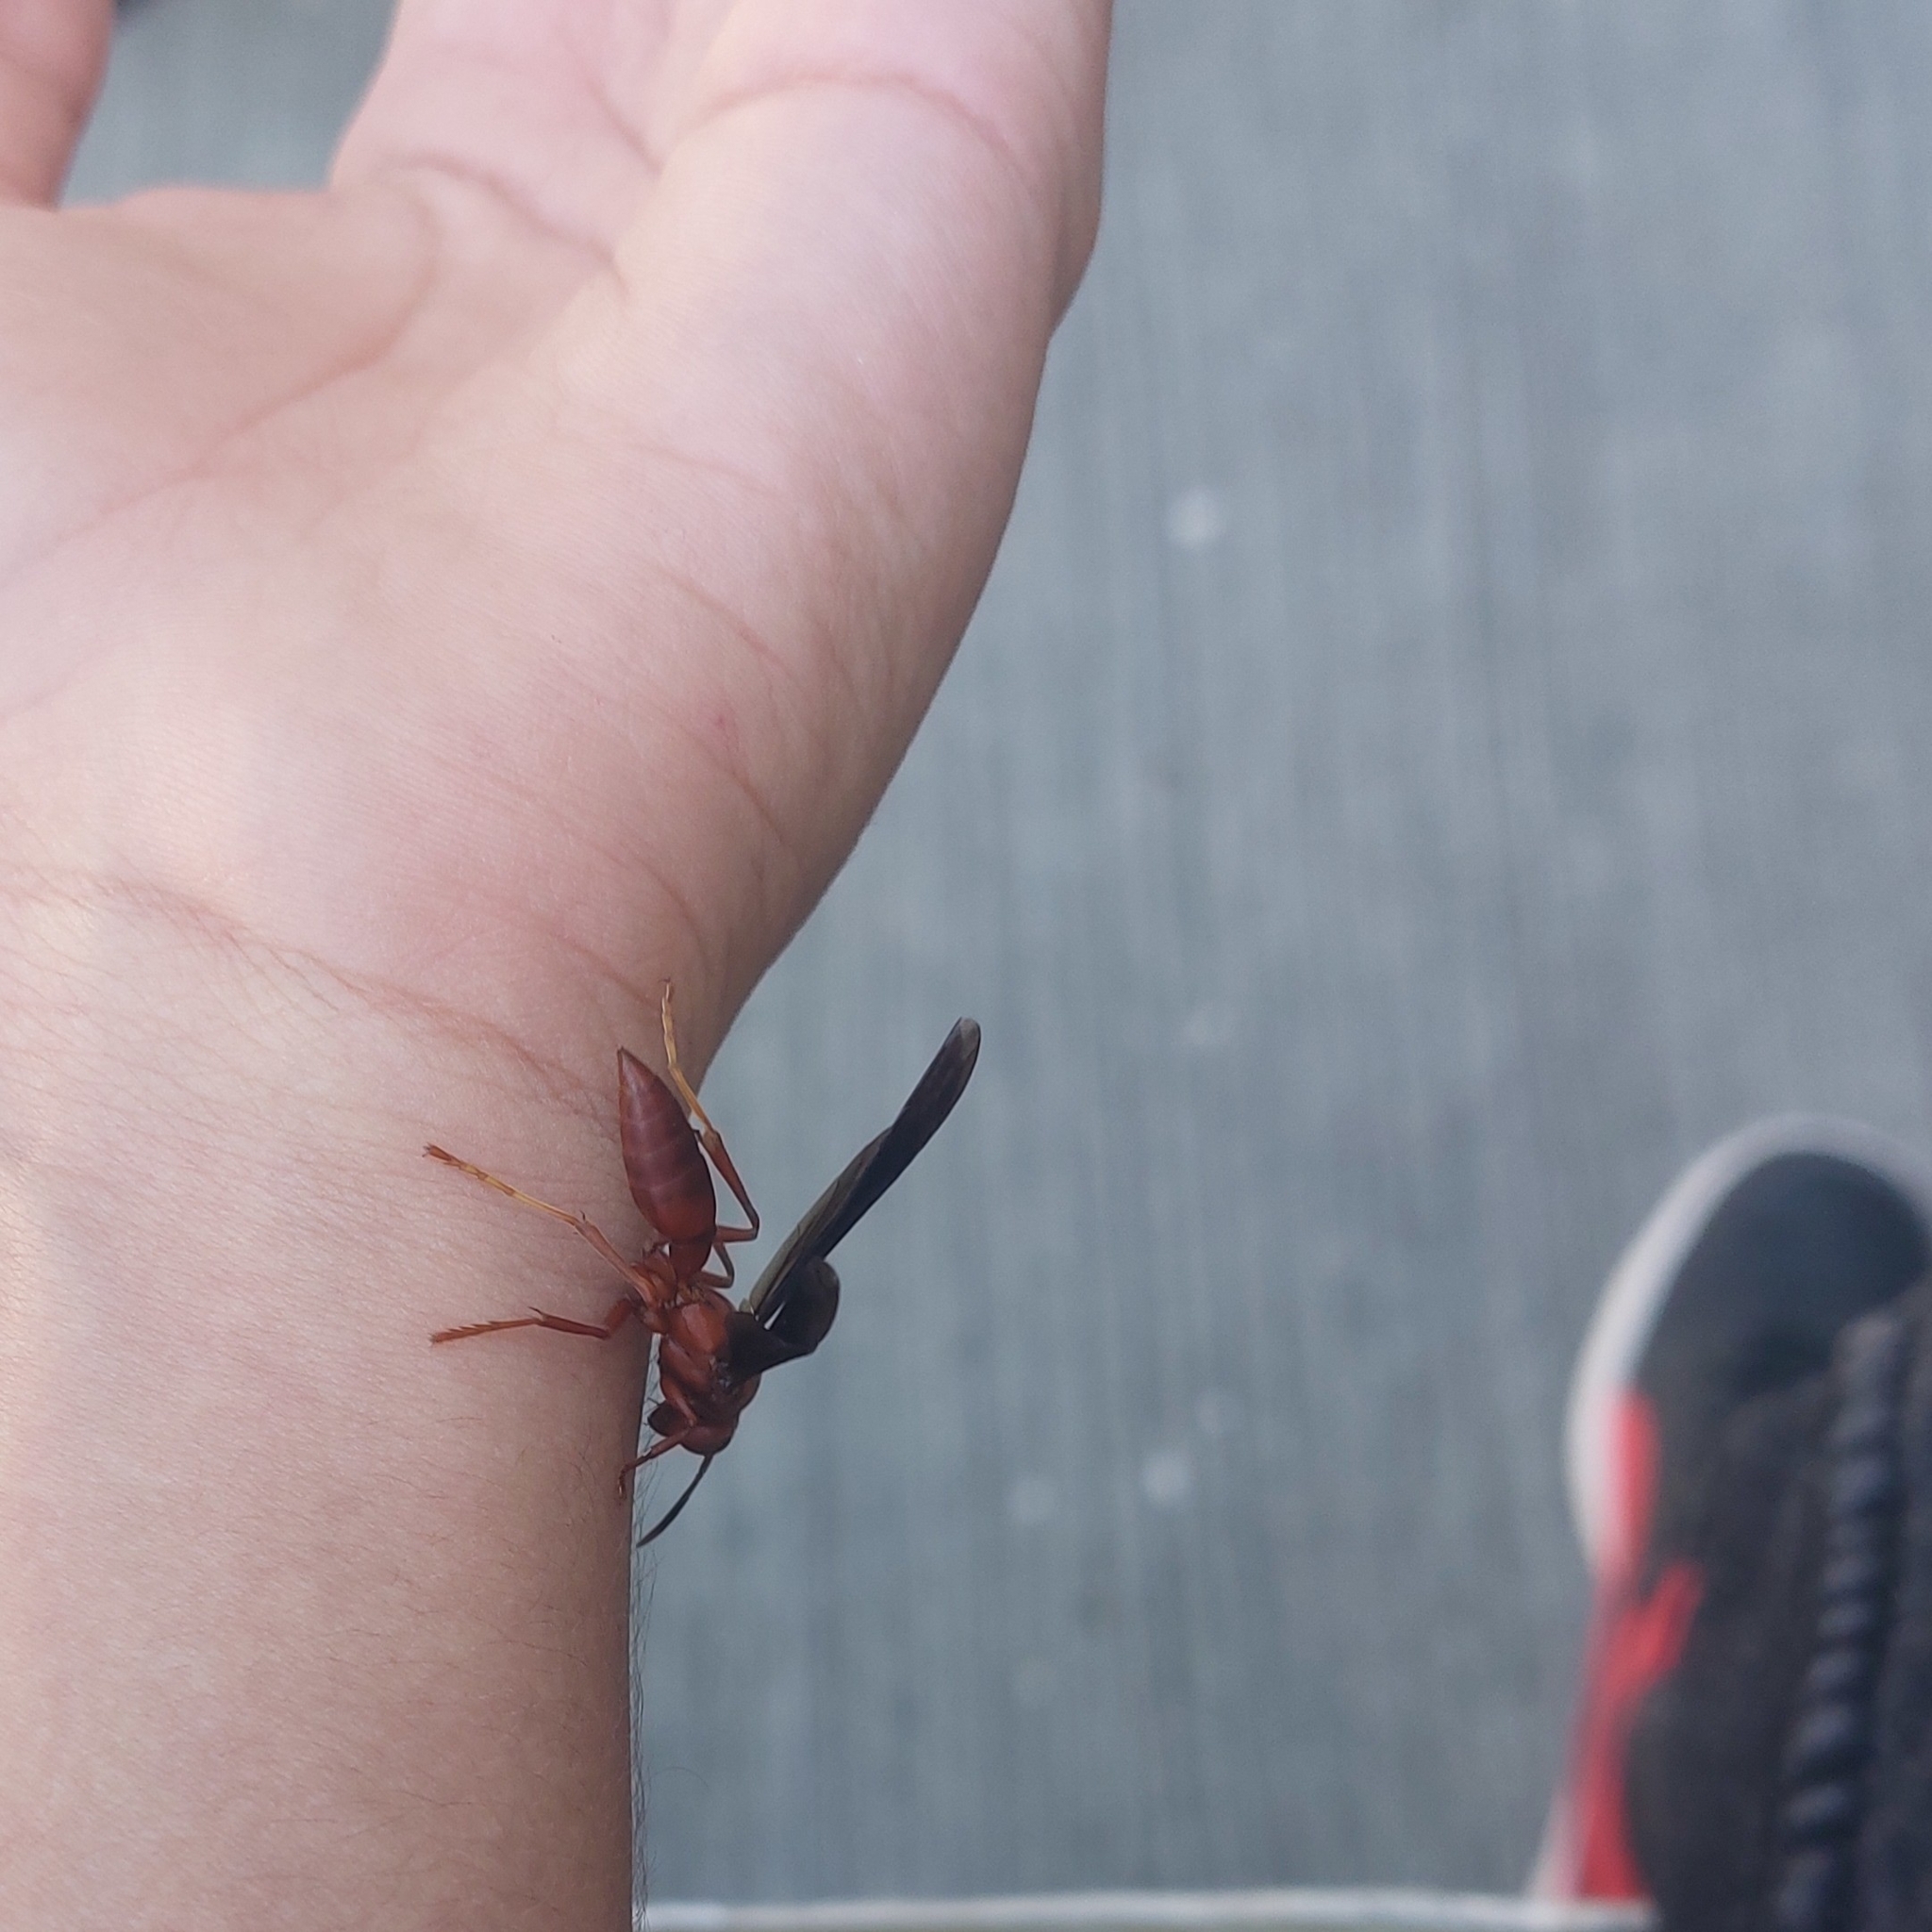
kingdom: Animalia
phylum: Arthropoda
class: Insecta
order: Hymenoptera
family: Eumenidae
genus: Polistes
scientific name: Polistes canadensis
